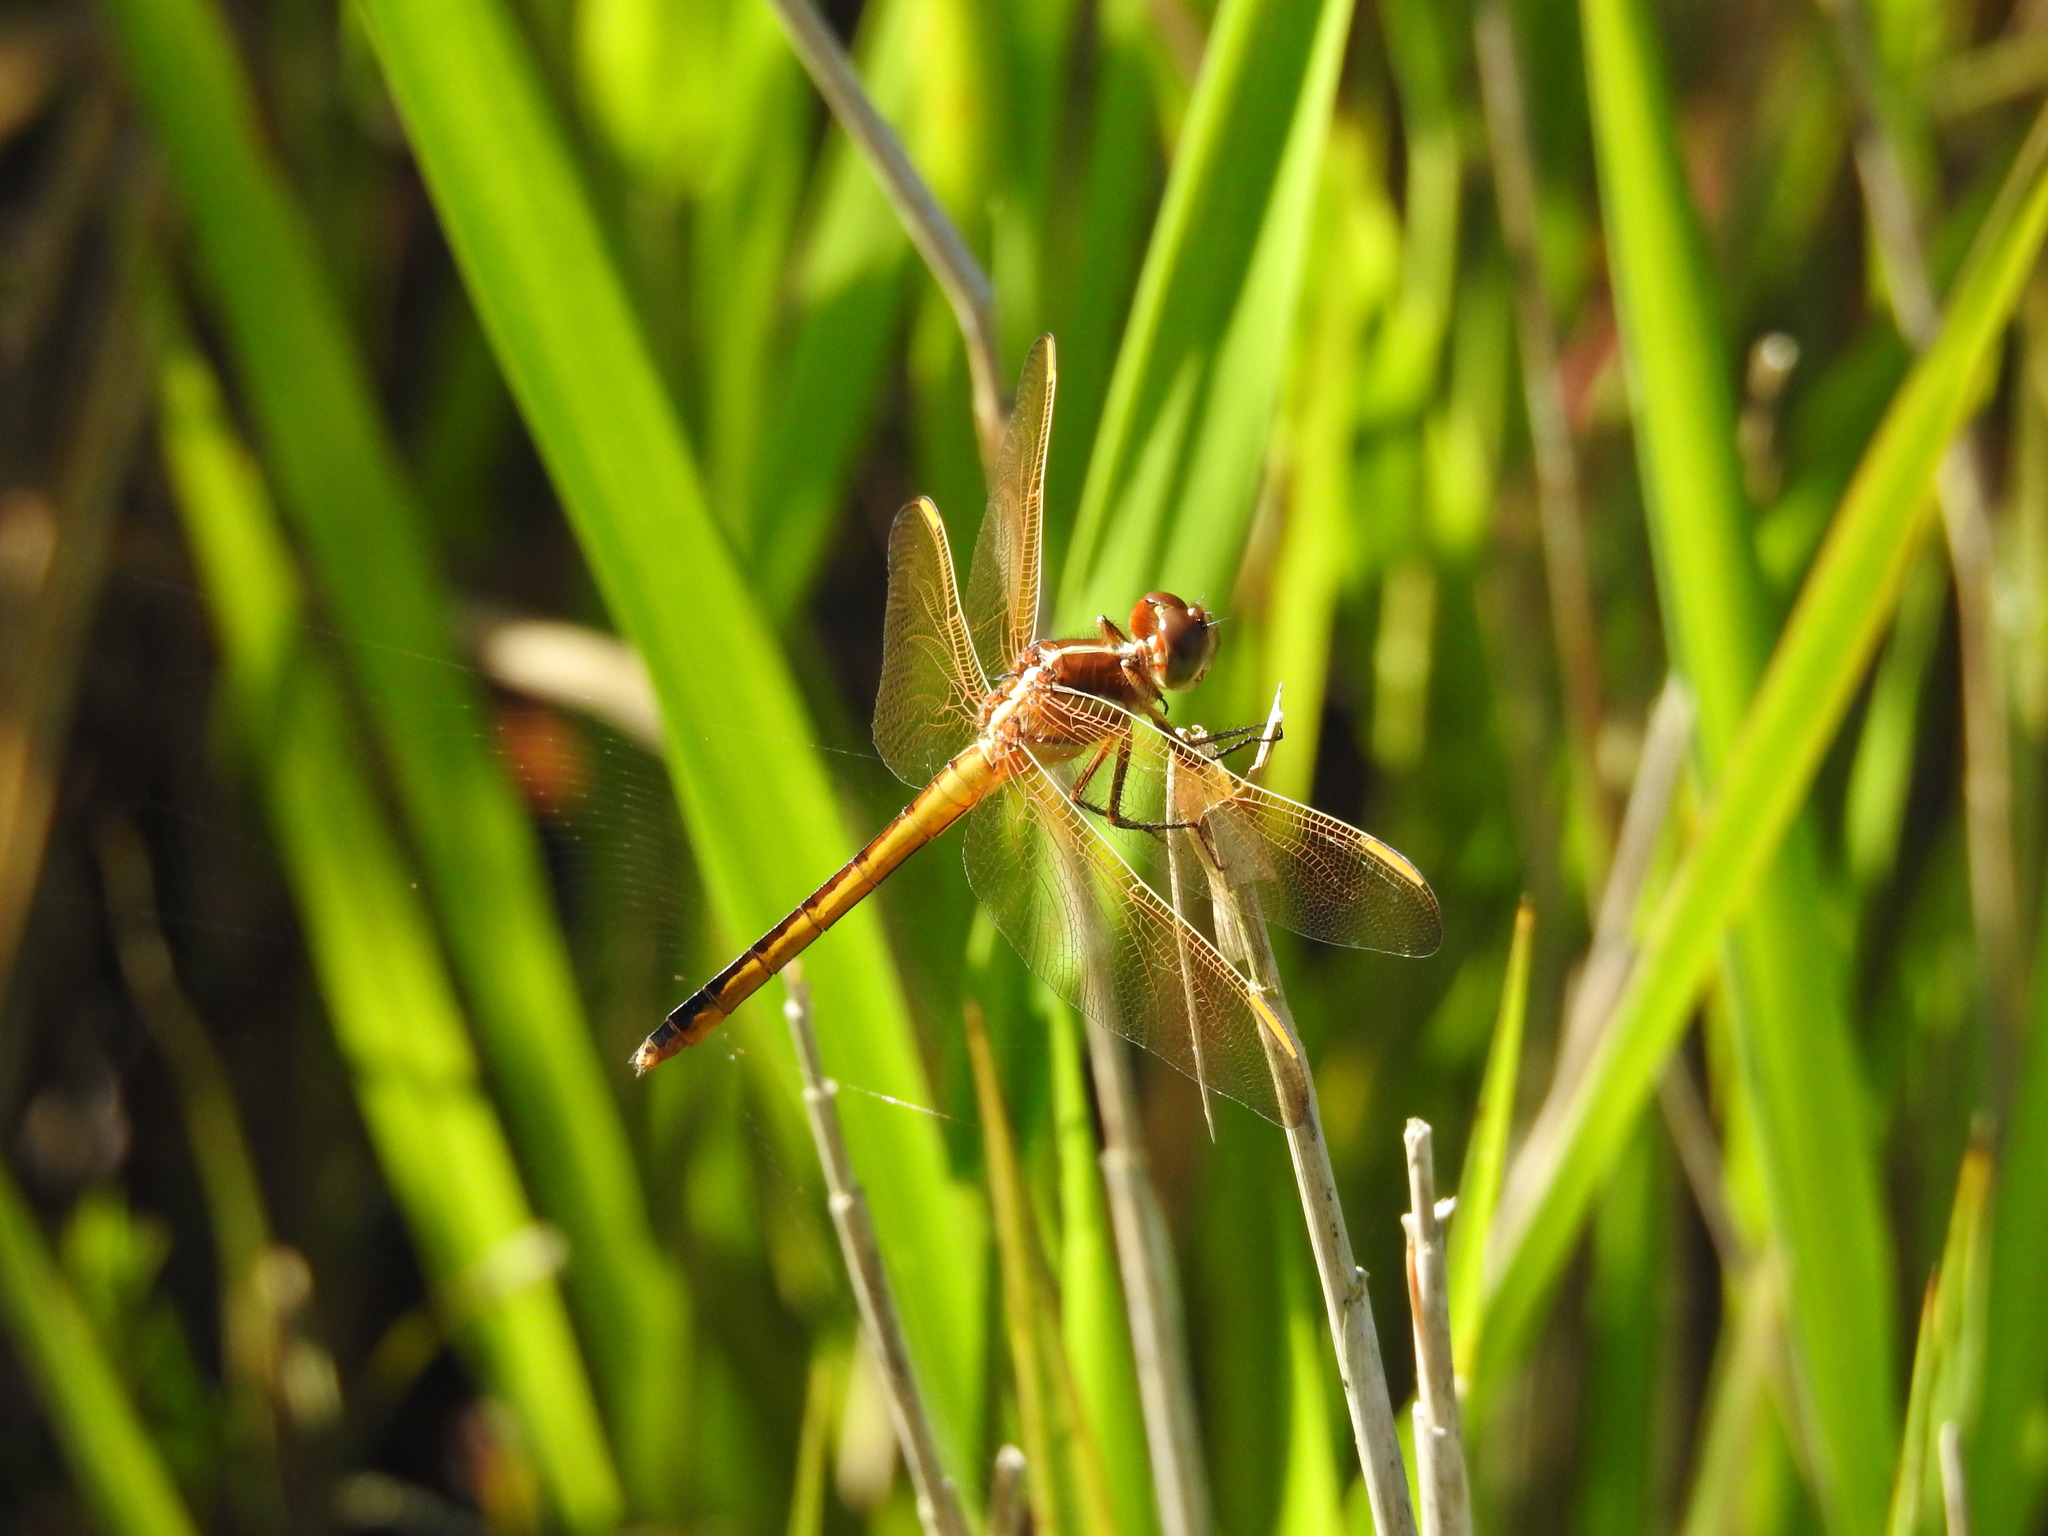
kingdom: Animalia
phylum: Arthropoda
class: Insecta
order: Odonata
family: Libellulidae
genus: Libellula
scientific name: Libellula auripennis
